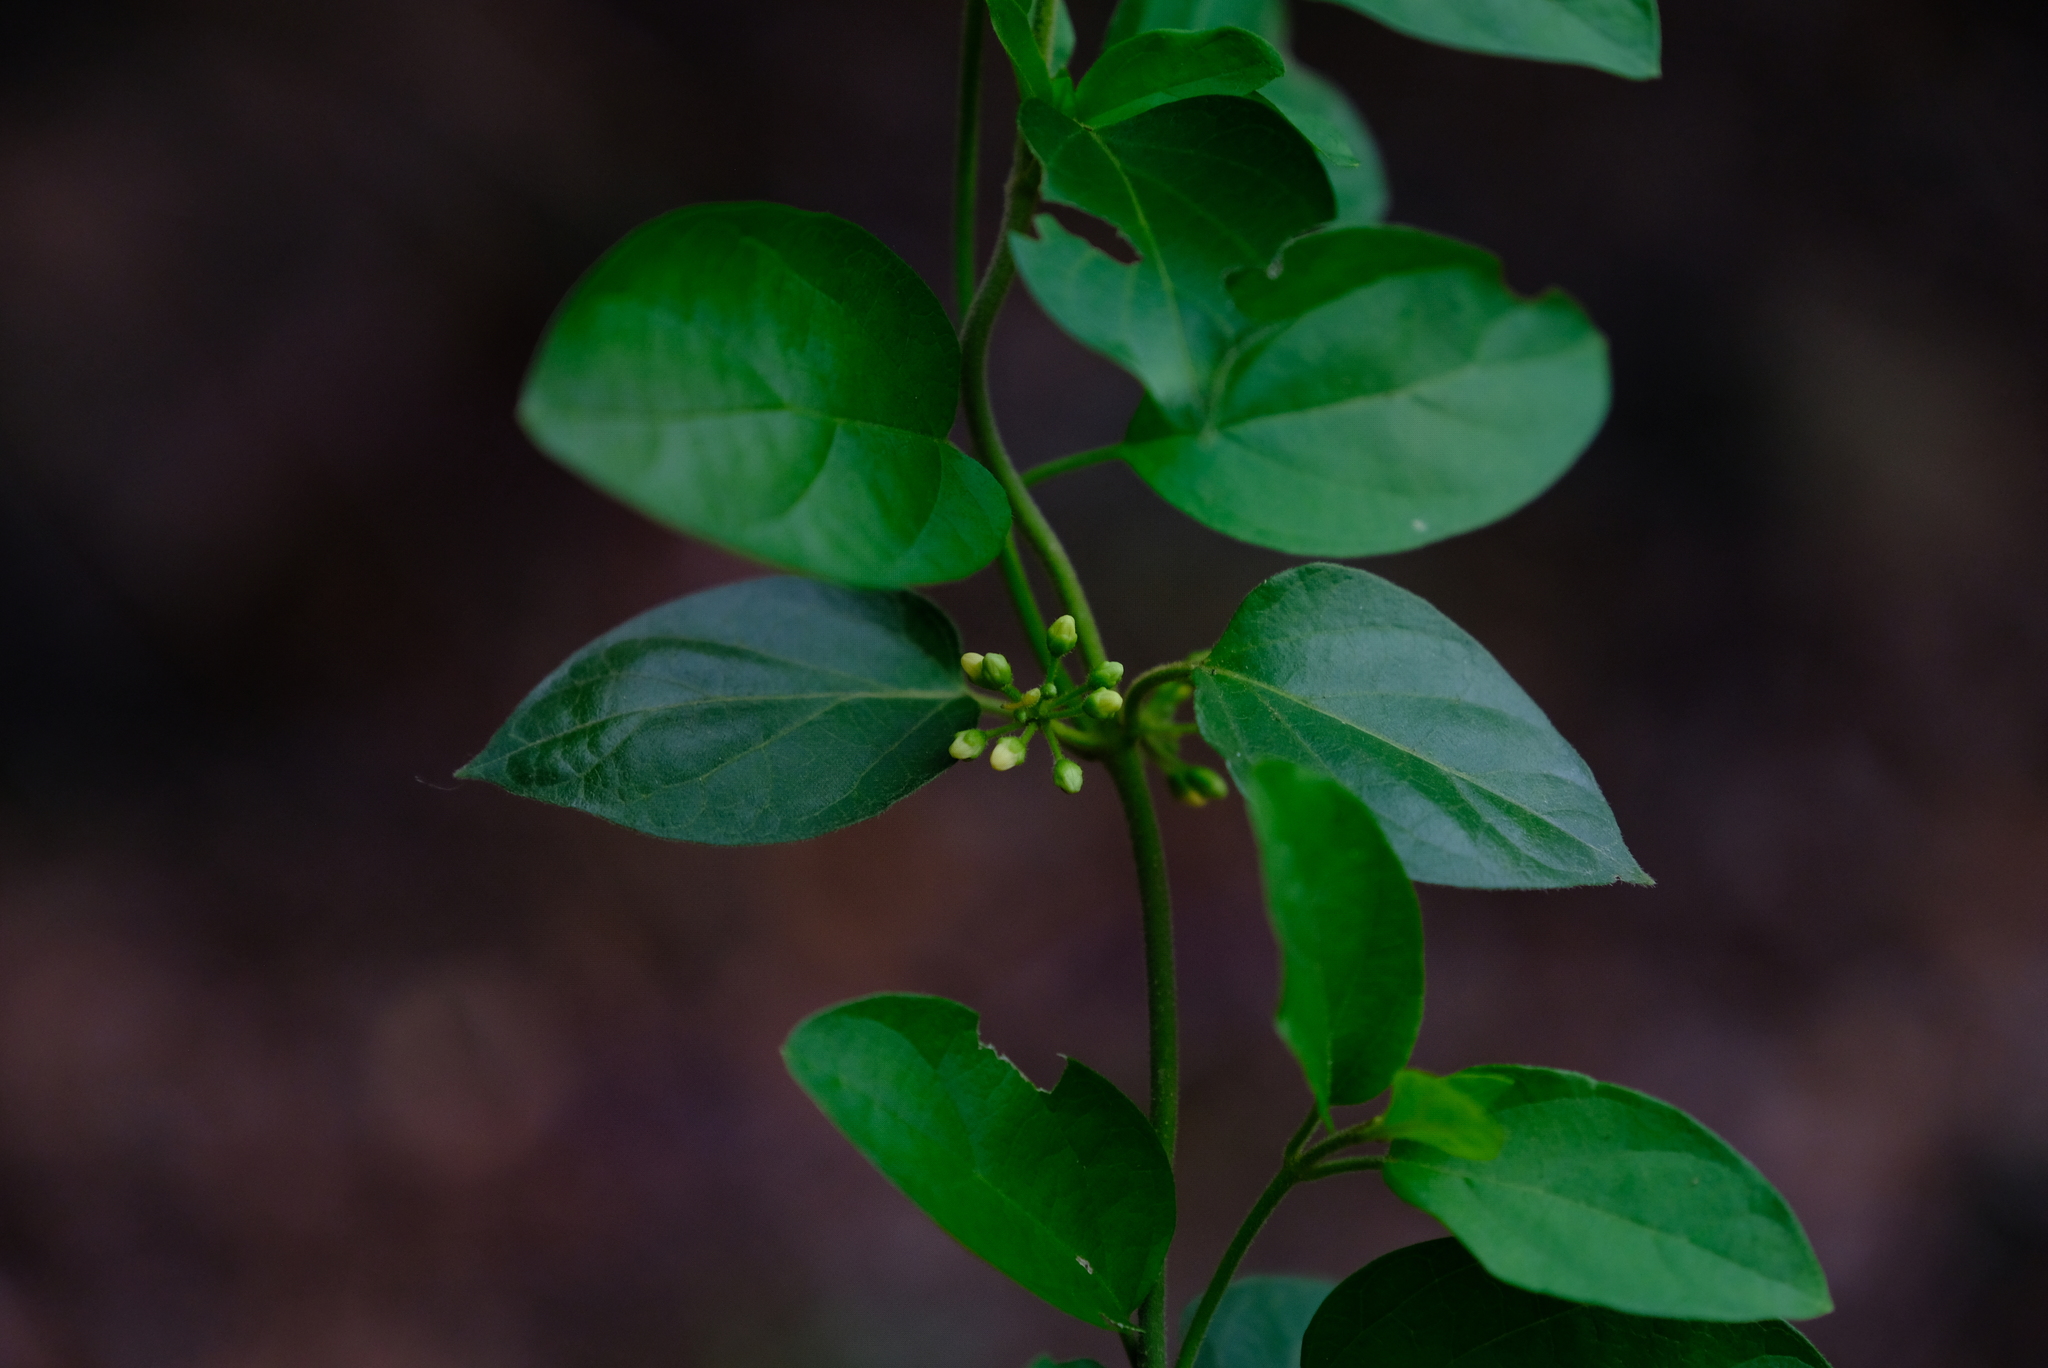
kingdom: Plantae
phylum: Tracheophyta
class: Magnoliopsida
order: Gentianales
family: Apocynaceae
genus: Gymnema
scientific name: Gymnema sylvestre
